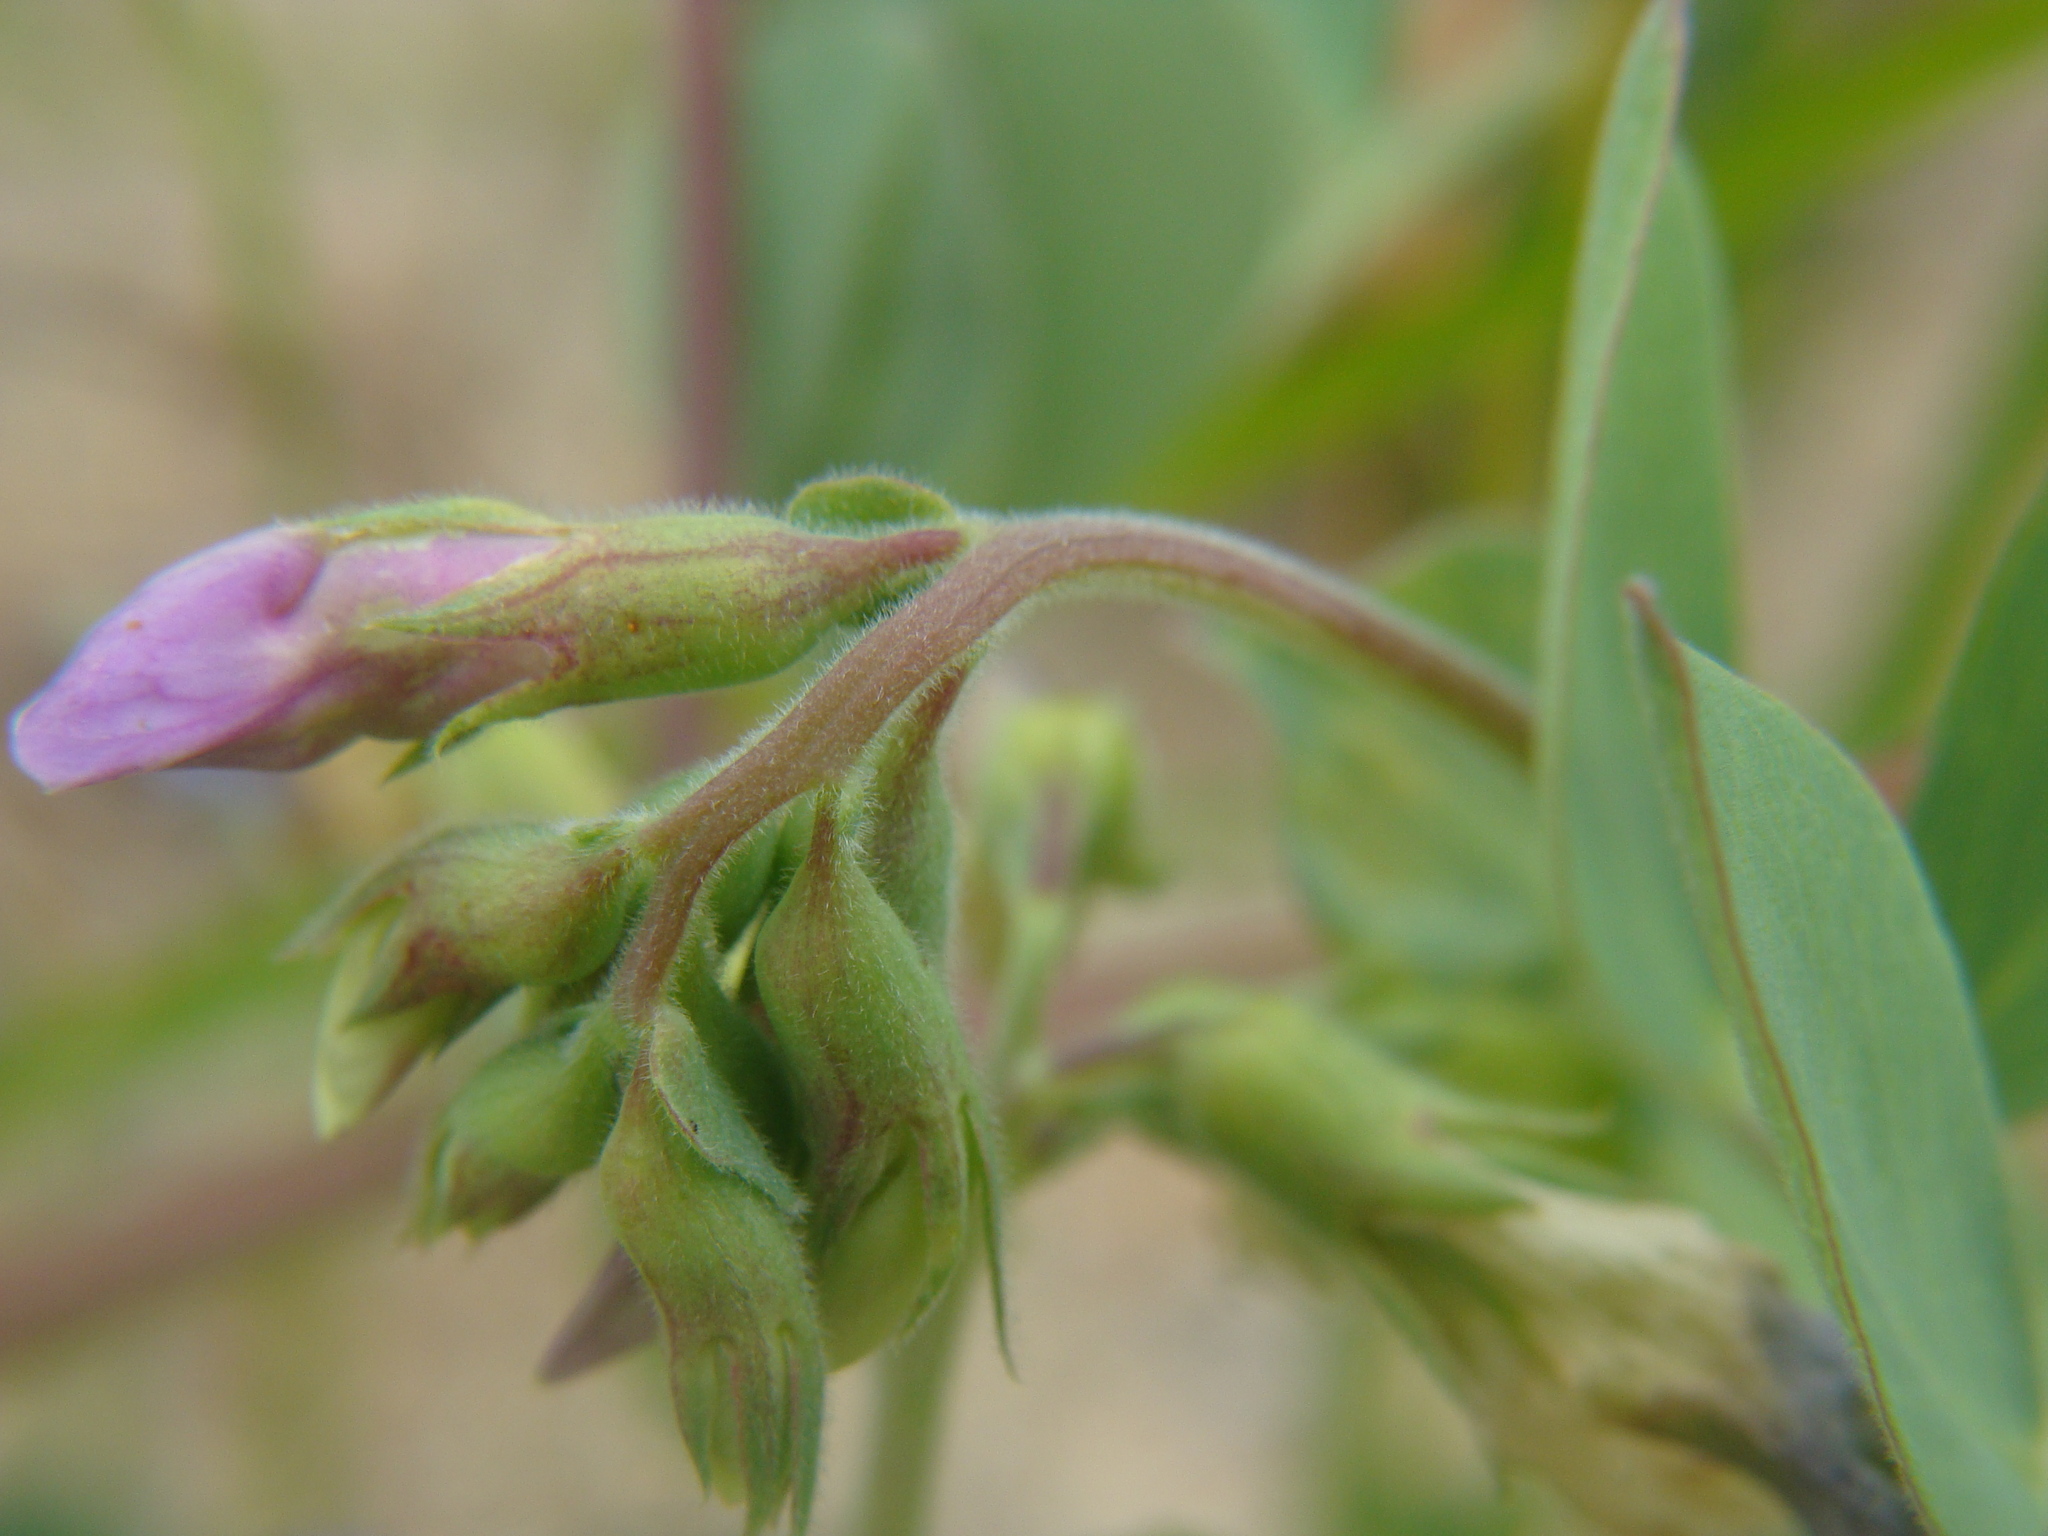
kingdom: Plantae
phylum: Tracheophyta
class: Magnoliopsida
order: Fabales
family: Fabaceae
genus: Lathyrus
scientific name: Lathyrus japonicus
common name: Sea pea
